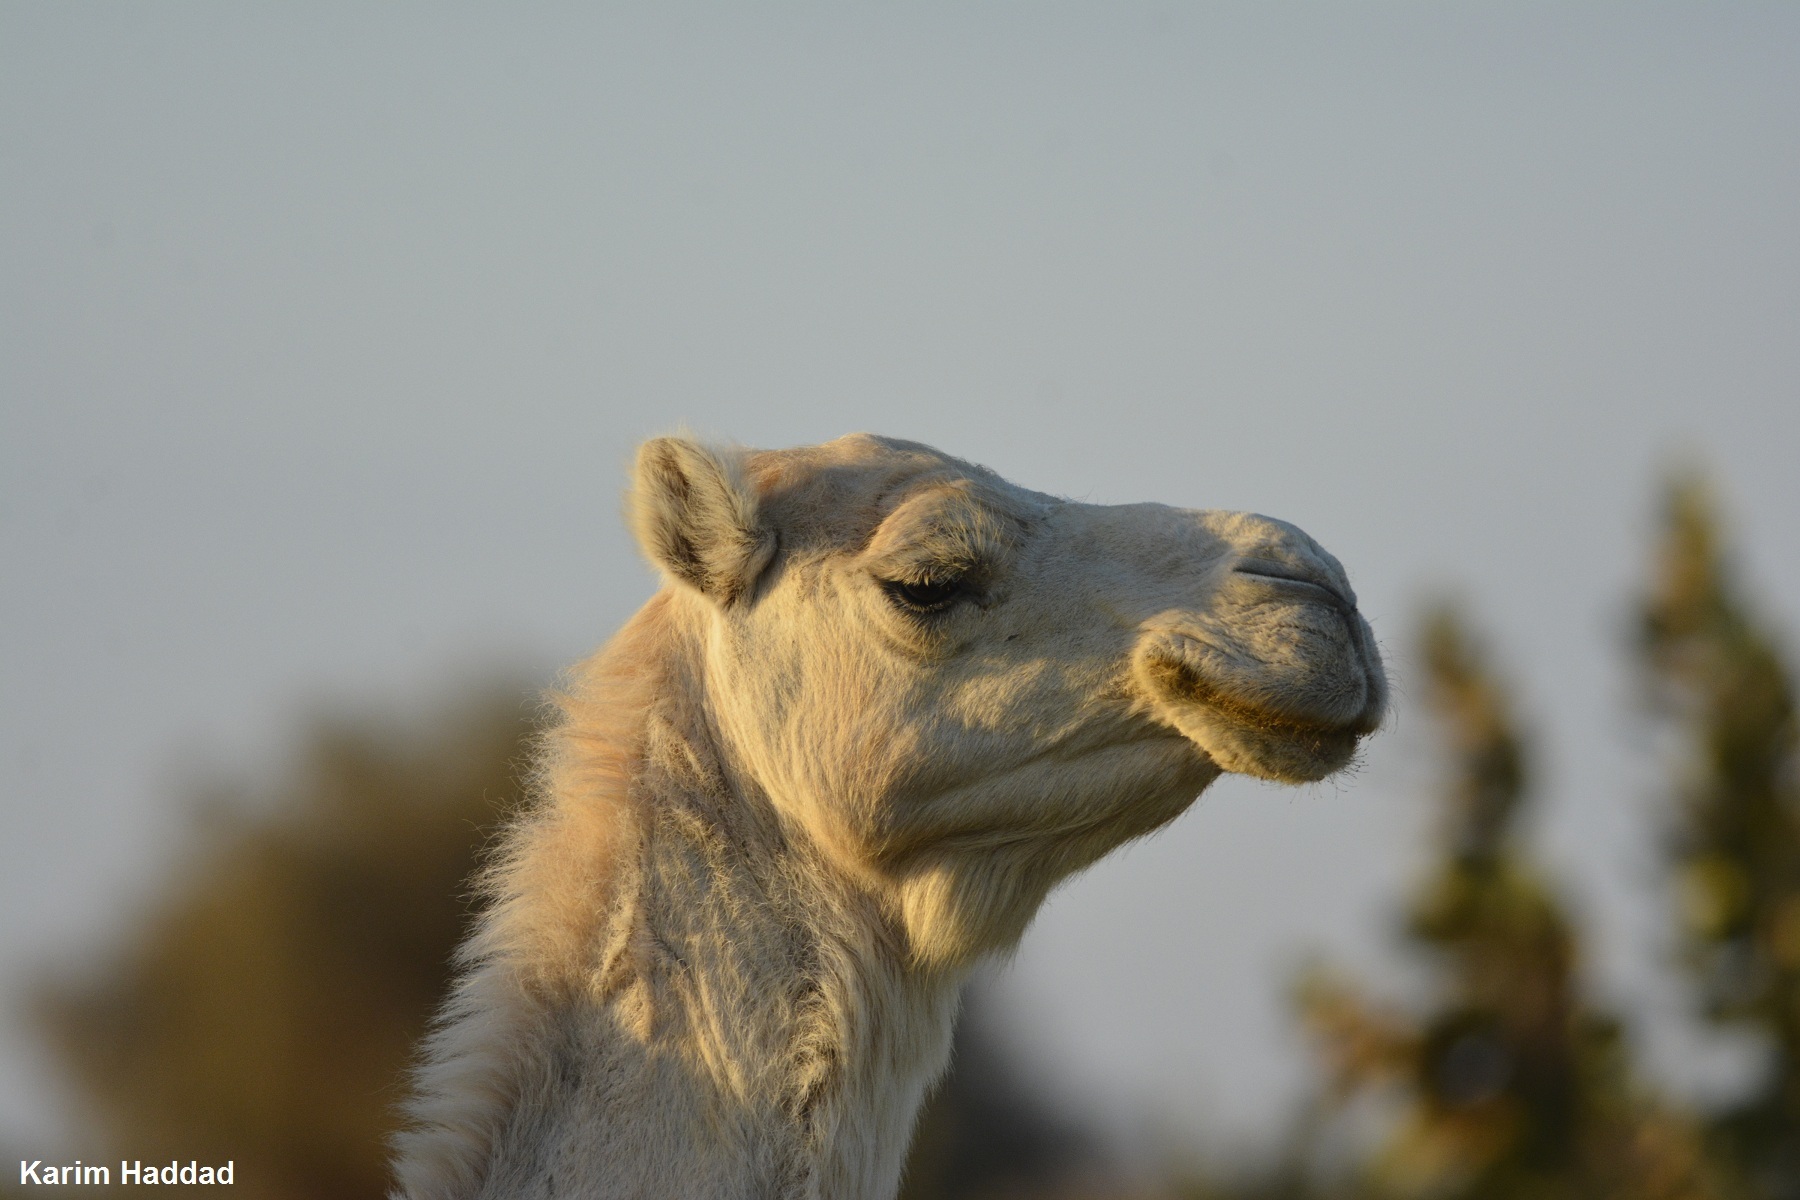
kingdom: Animalia
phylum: Chordata
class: Mammalia
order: Artiodactyla
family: Camelidae
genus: Camelus
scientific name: Camelus dromedarius
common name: One-humped camel
